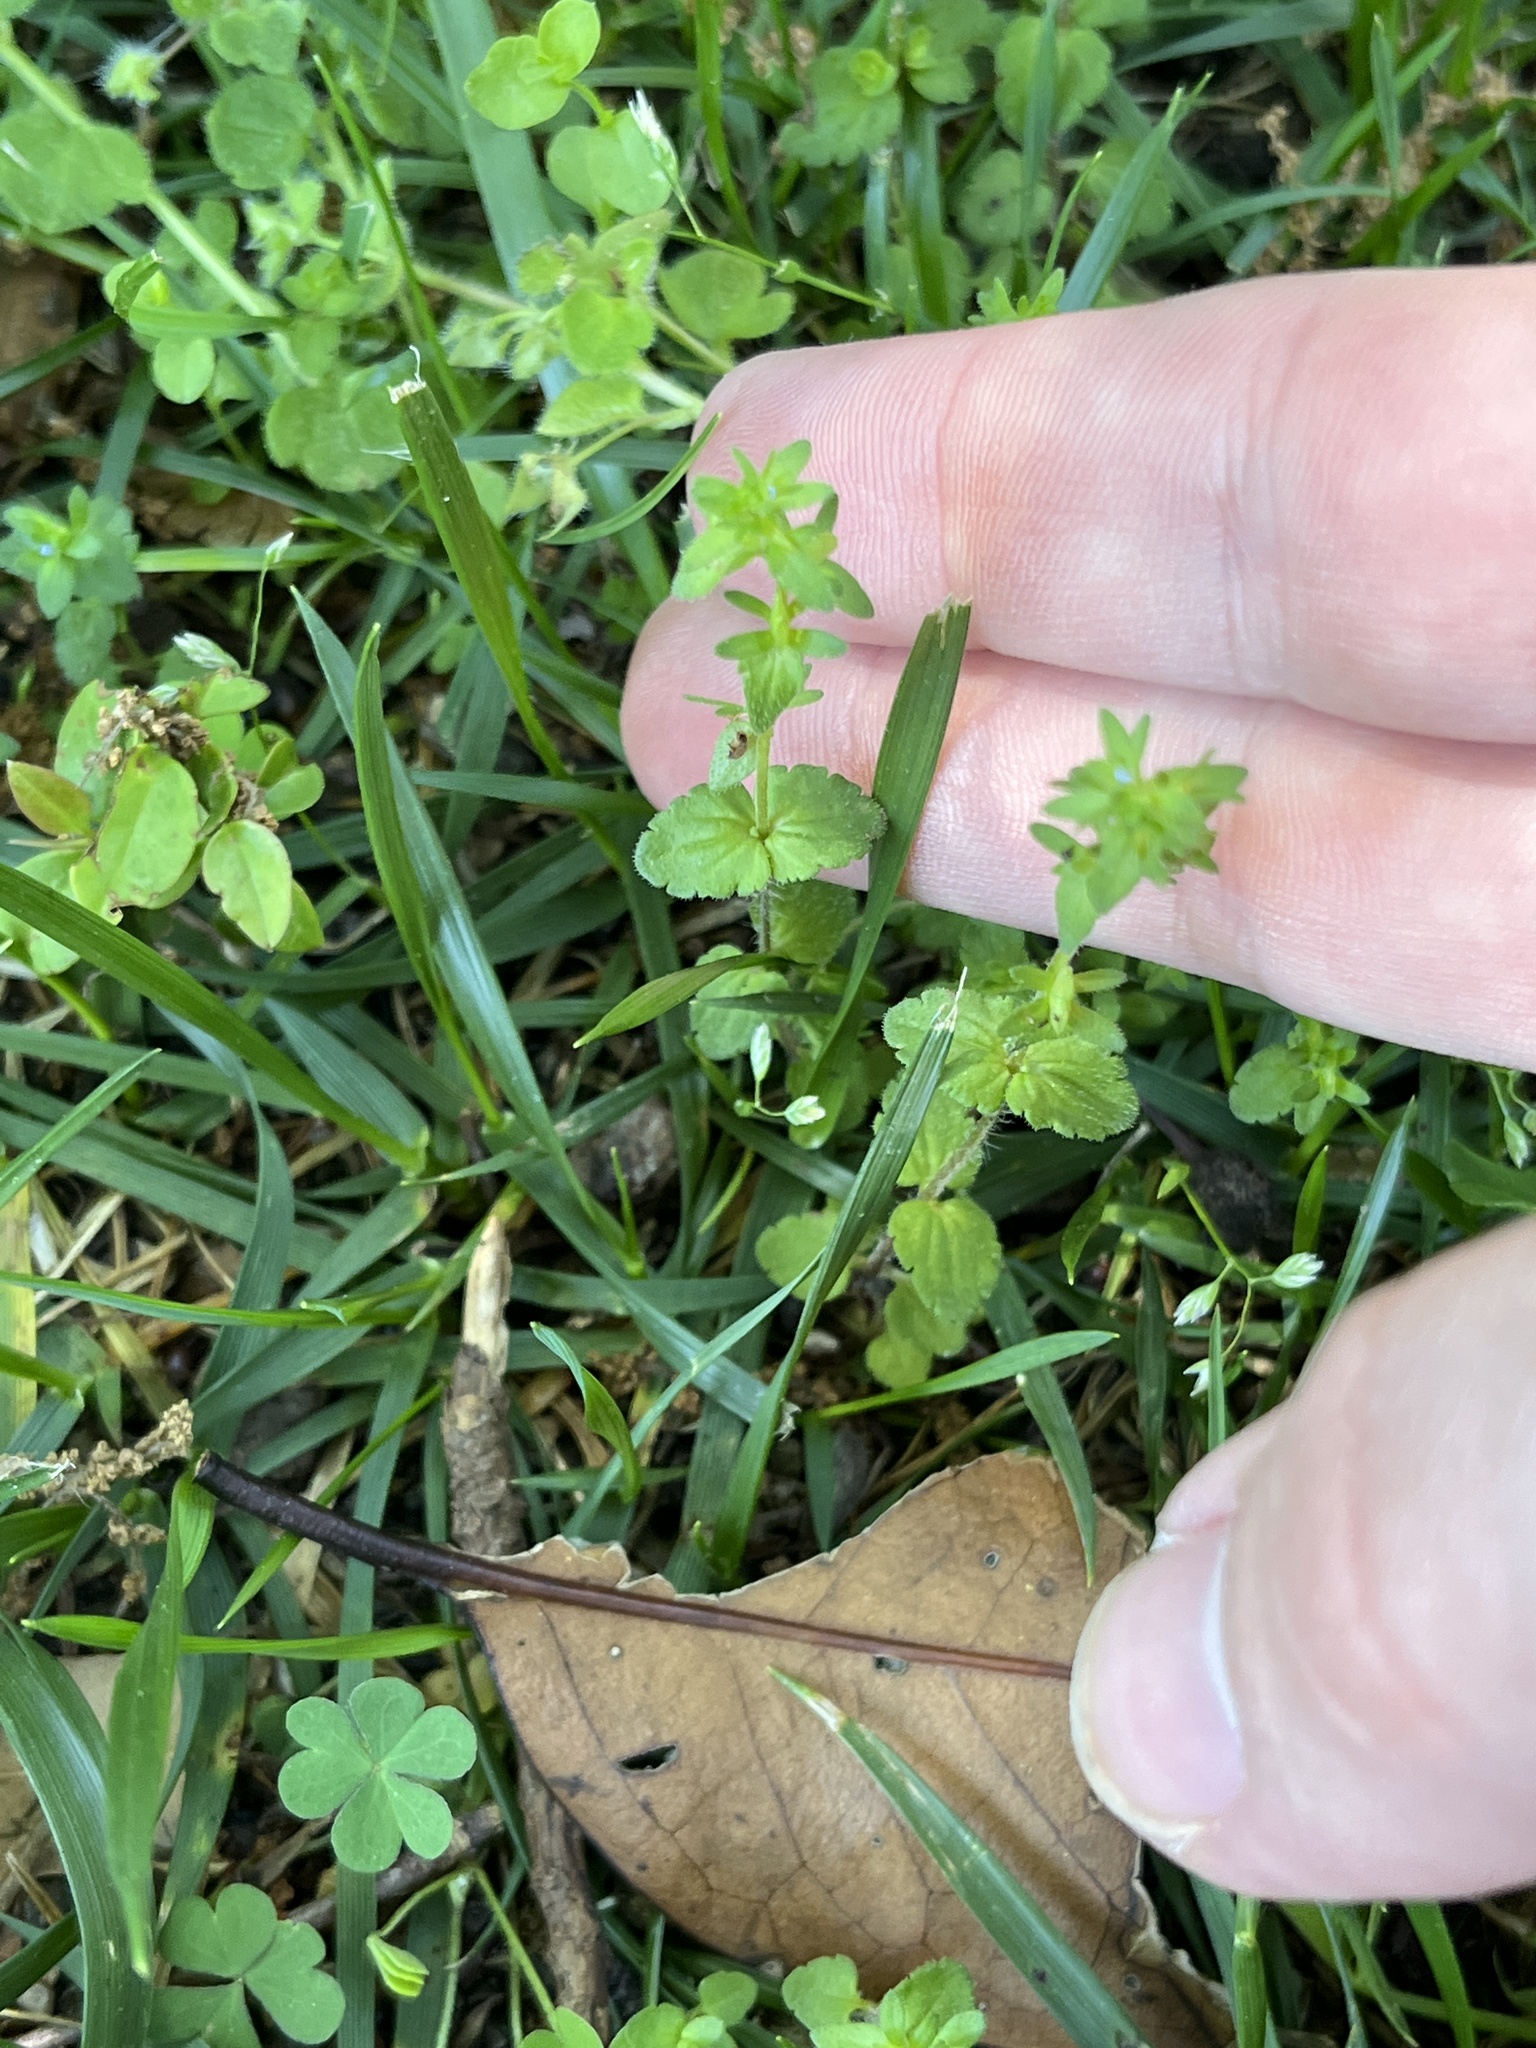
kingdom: Plantae
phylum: Tracheophyta
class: Magnoliopsida
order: Lamiales
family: Plantaginaceae
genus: Veronica
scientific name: Veronica arvensis
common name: Corn speedwell
